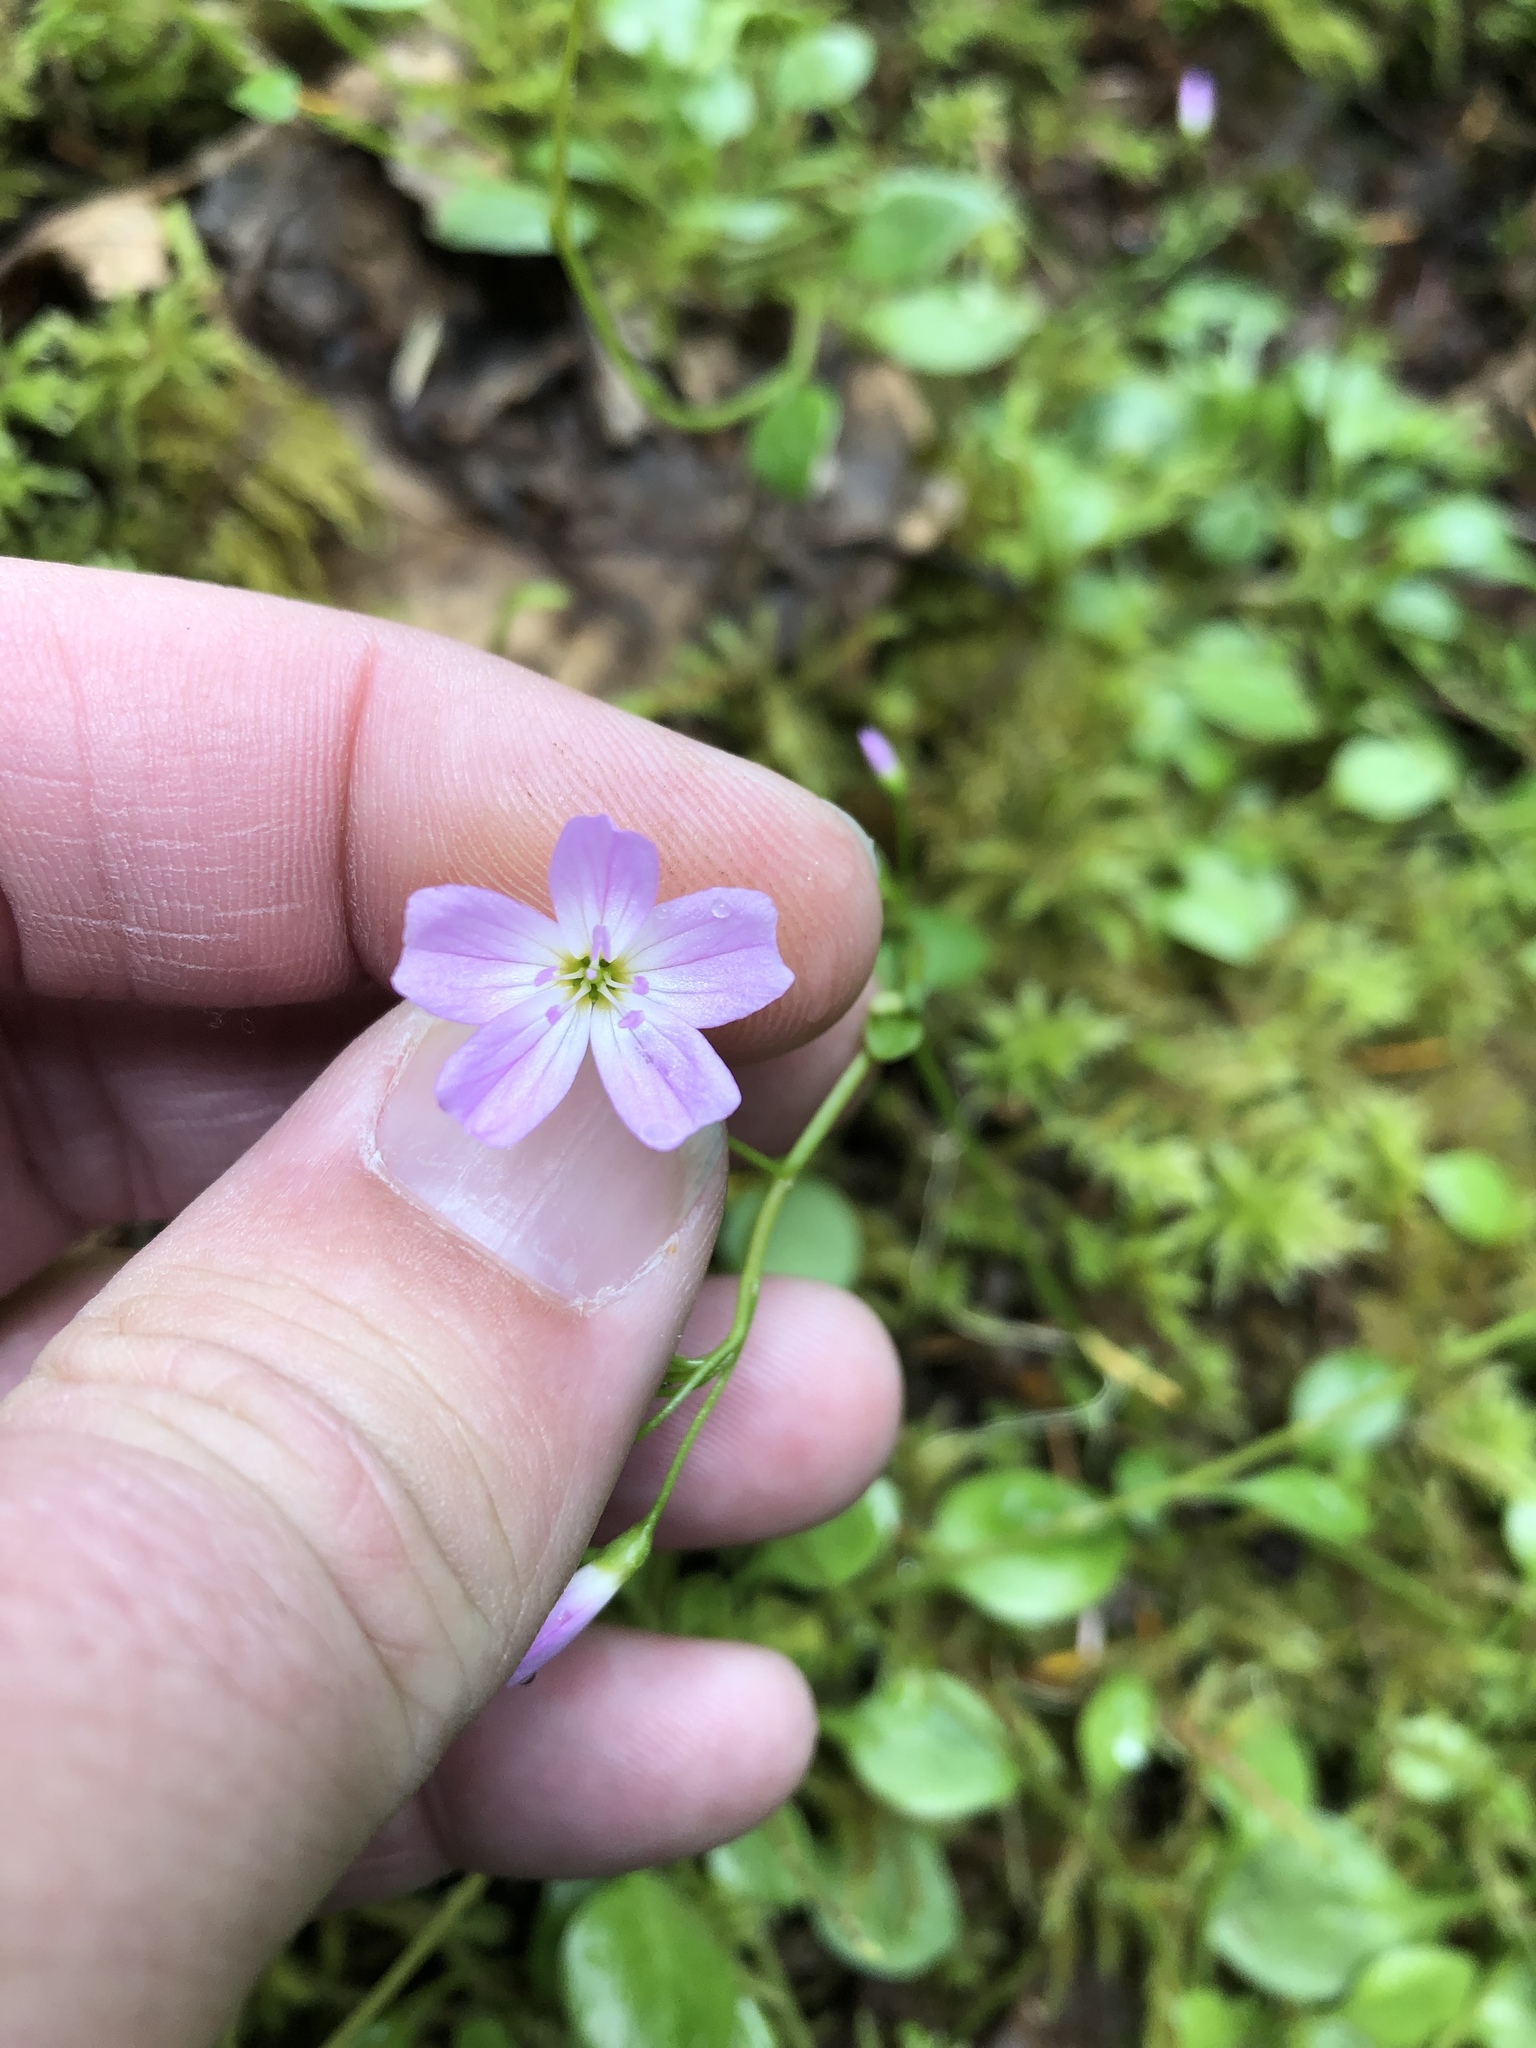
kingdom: Plantae
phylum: Tracheophyta
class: Magnoliopsida
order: Caryophyllales
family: Montiaceae
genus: Montia
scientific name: Montia parvifolia
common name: Small-leaved blinks
